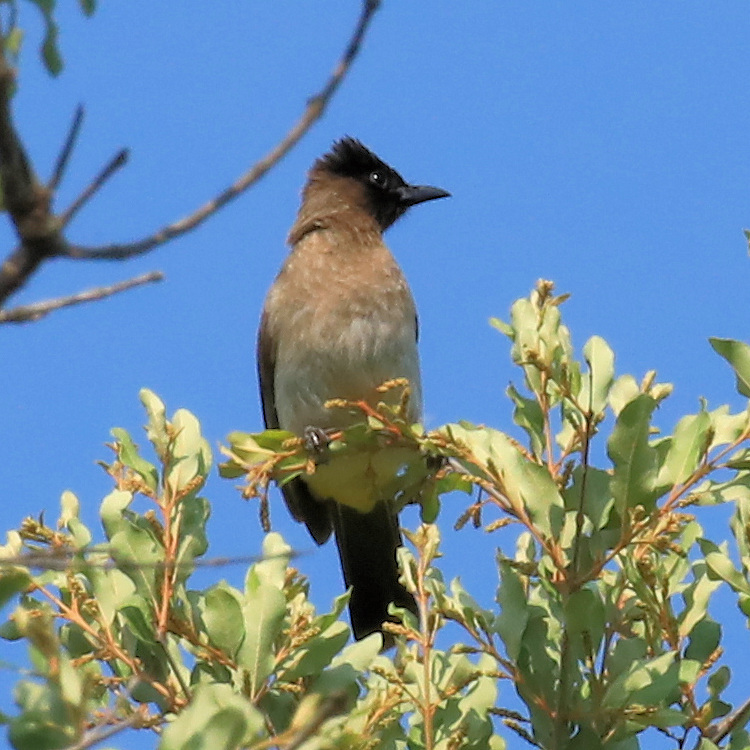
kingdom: Animalia
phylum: Chordata
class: Aves
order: Passeriformes
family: Pycnonotidae
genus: Pycnonotus
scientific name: Pycnonotus barbatus
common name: Common bulbul
